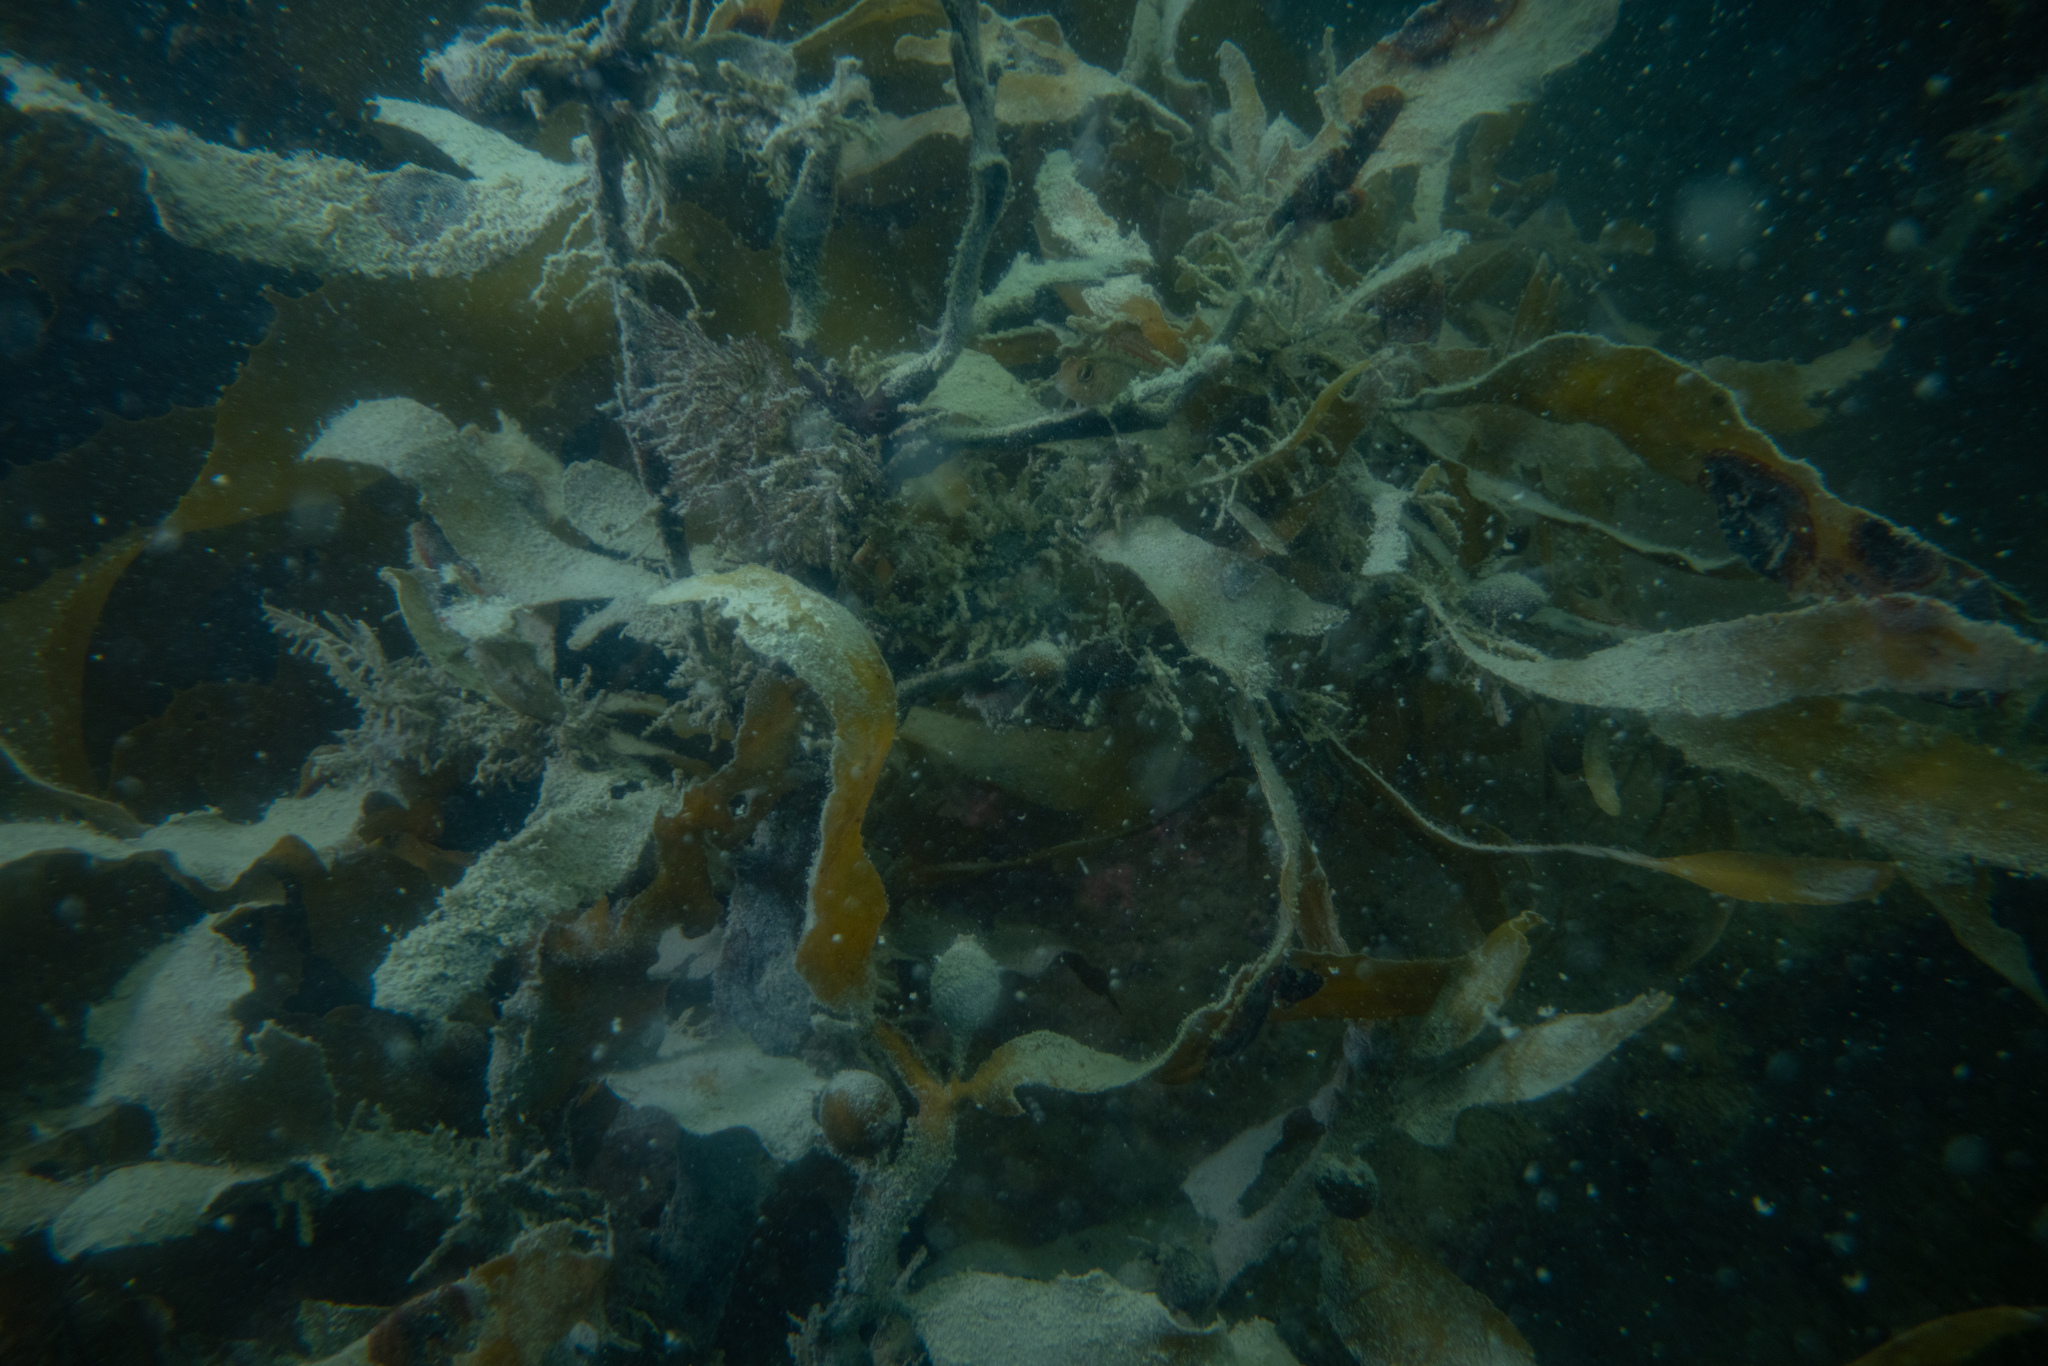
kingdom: Chromista
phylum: Ochrophyta
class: Phaeophyceae
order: Fucales
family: Sargassaceae
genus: Sargassum
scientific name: Sargassum sinclairii
